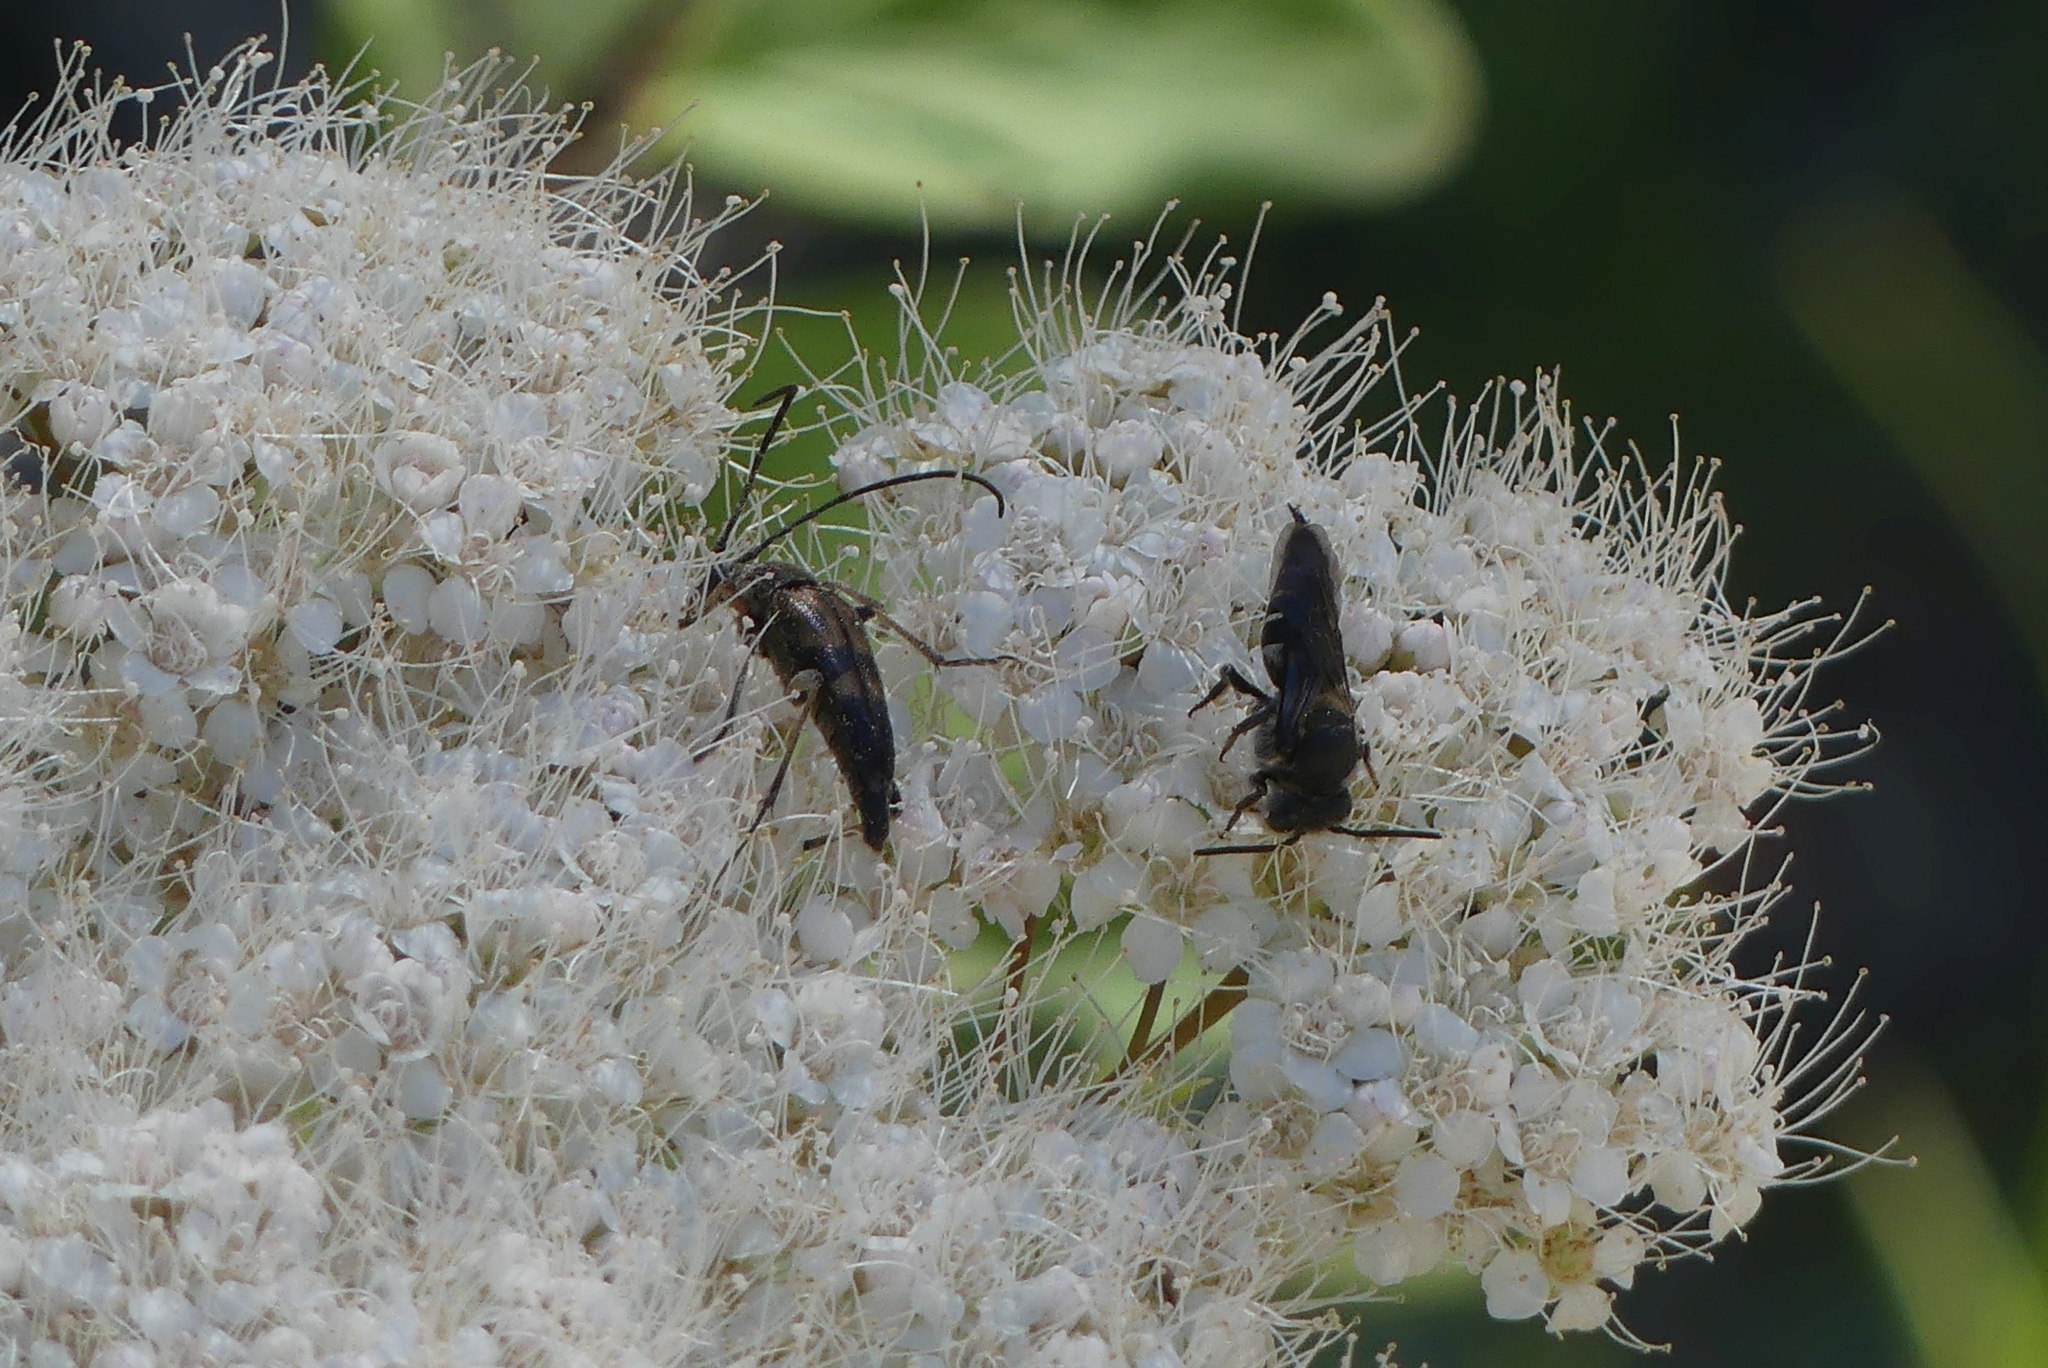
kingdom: Animalia
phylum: Arthropoda
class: Insecta
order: Coleoptera
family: Cerambycidae
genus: Etorofus
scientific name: Etorofus obliteratus
